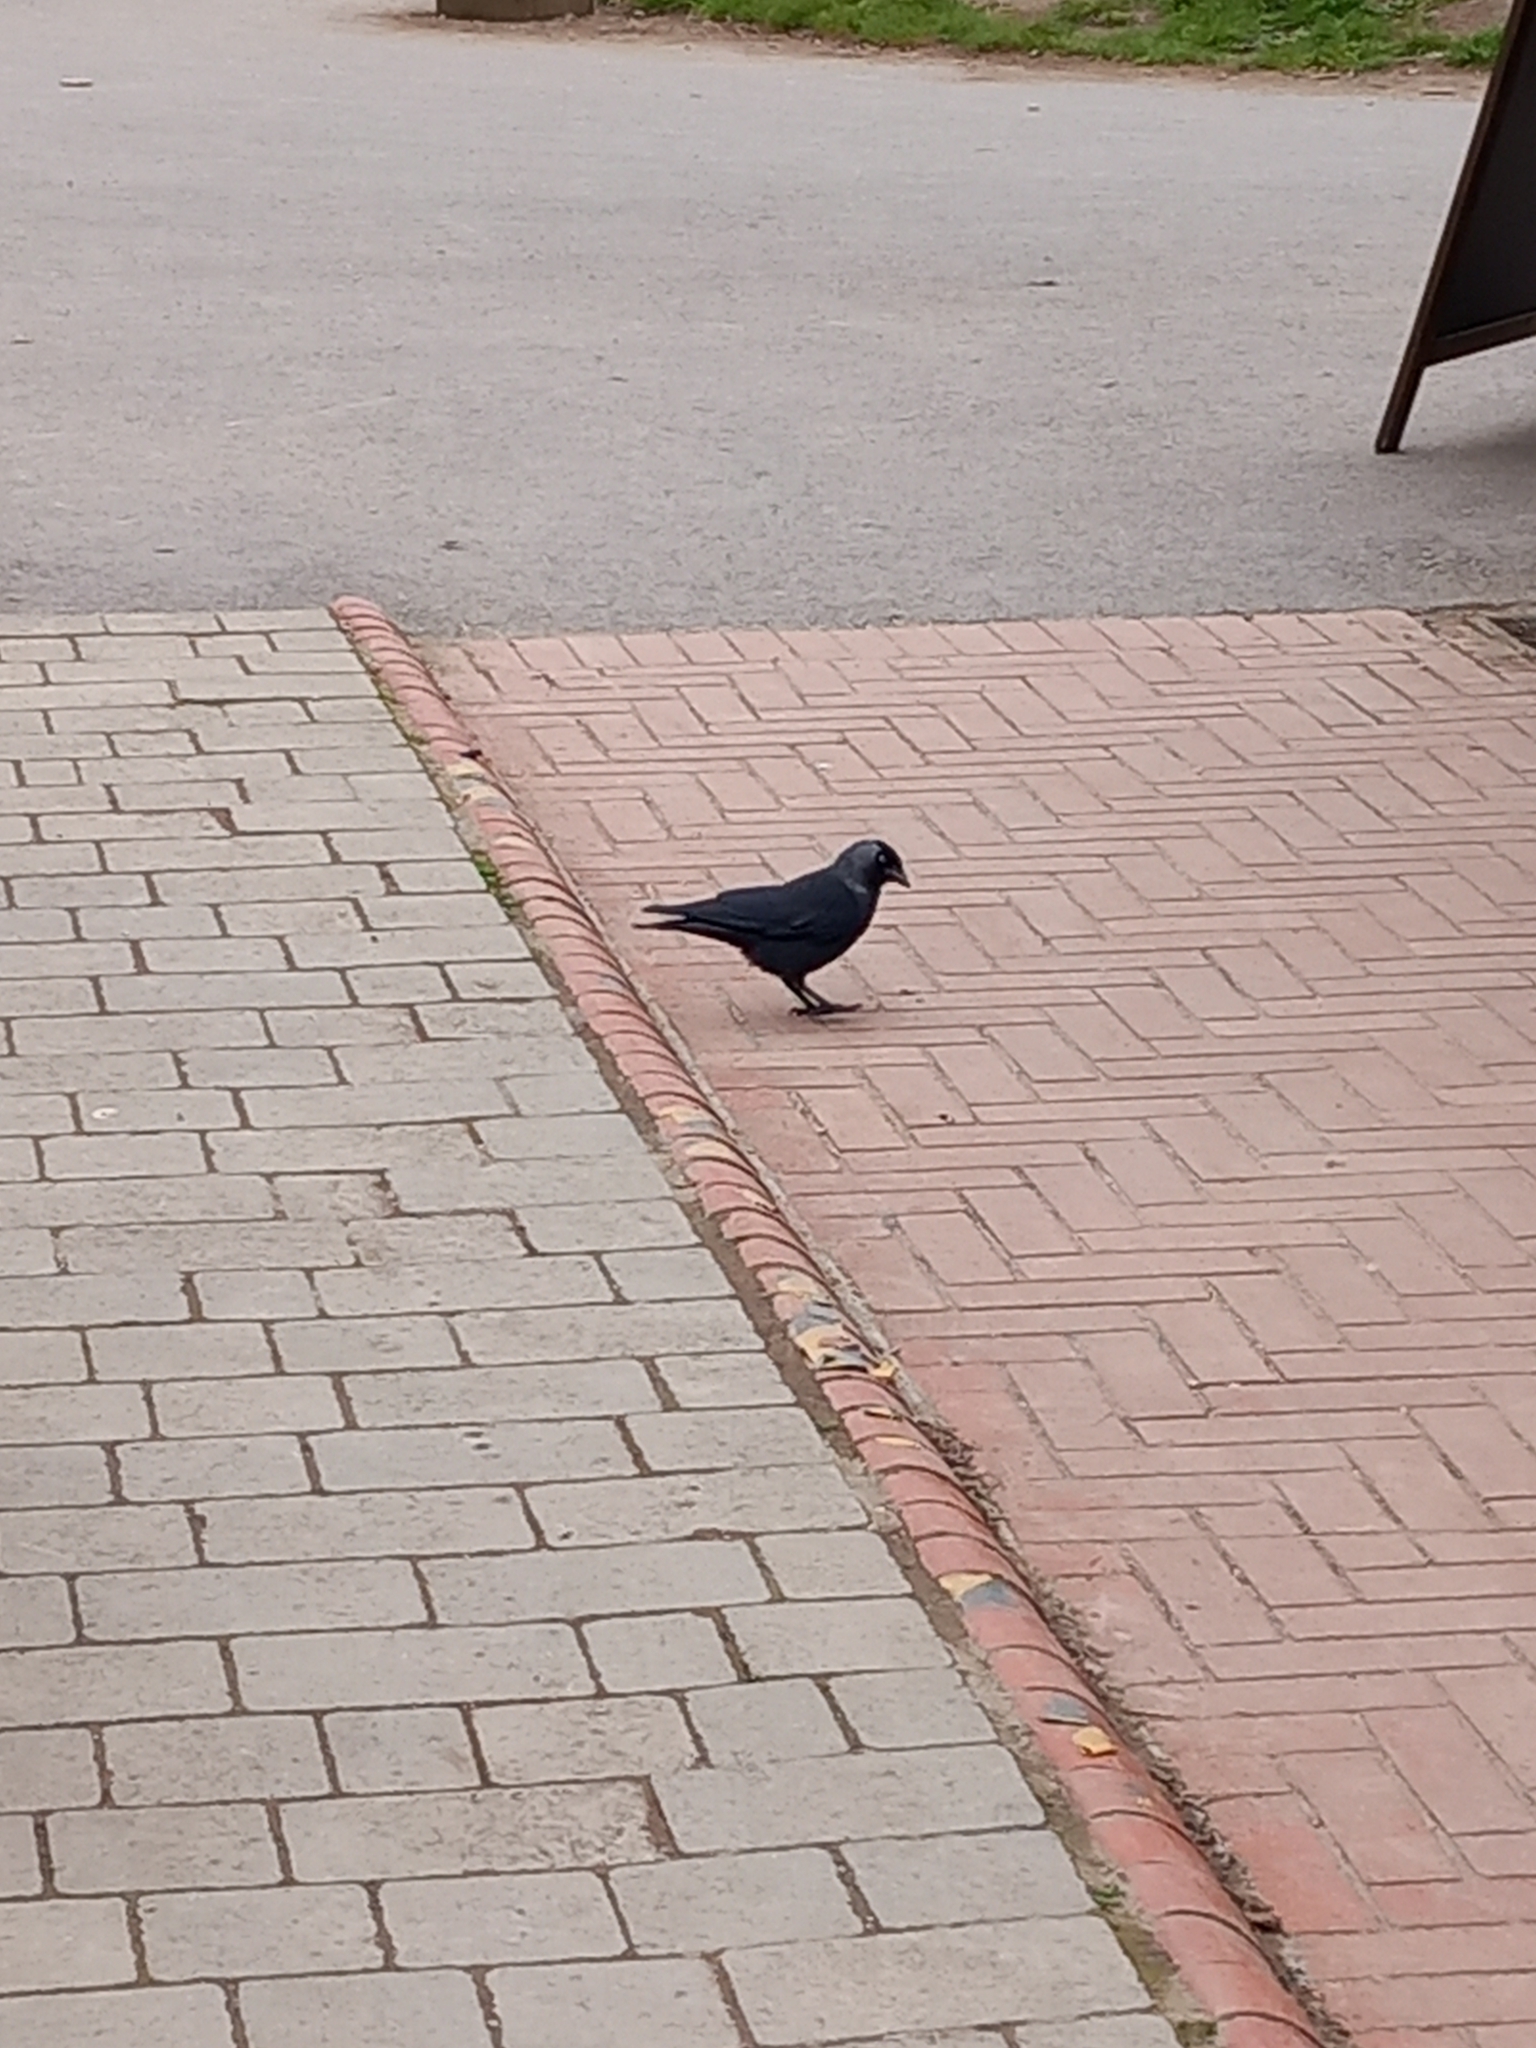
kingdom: Animalia
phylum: Chordata
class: Aves
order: Passeriformes
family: Corvidae
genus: Coloeus
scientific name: Coloeus monedula
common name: Western jackdaw
